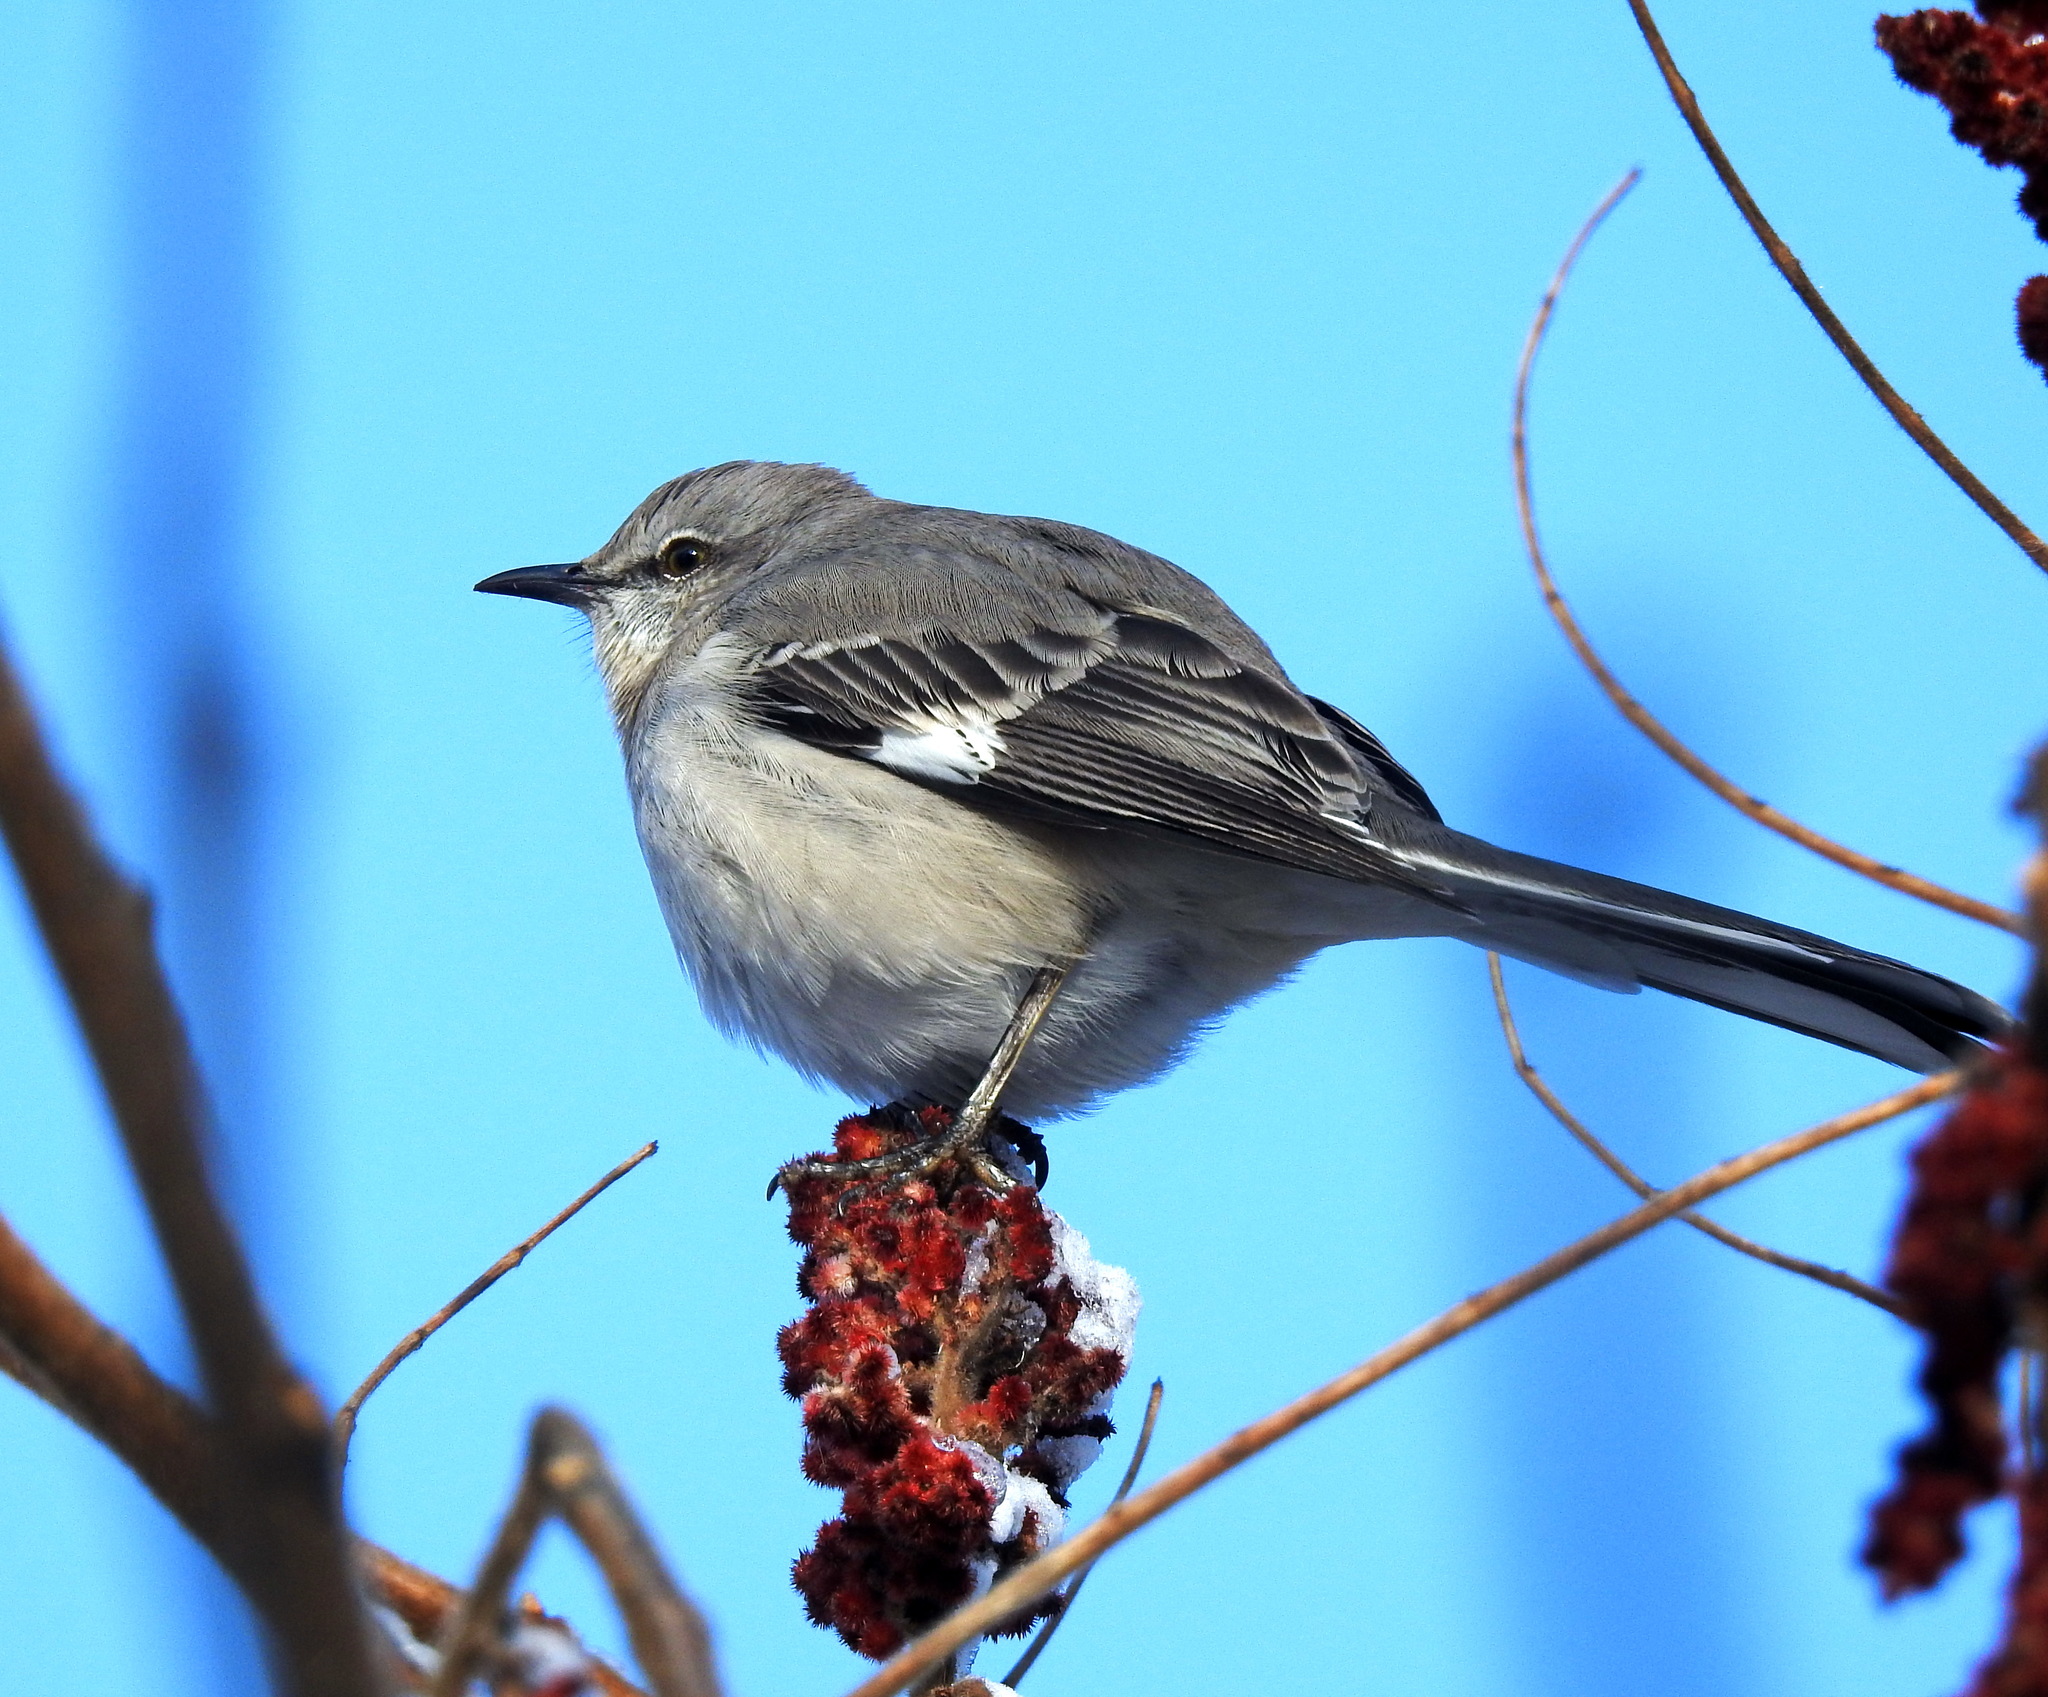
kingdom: Animalia
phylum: Chordata
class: Aves
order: Passeriformes
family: Mimidae
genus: Mimus
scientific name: Mimus polyglottos
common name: Northern mockingbird
